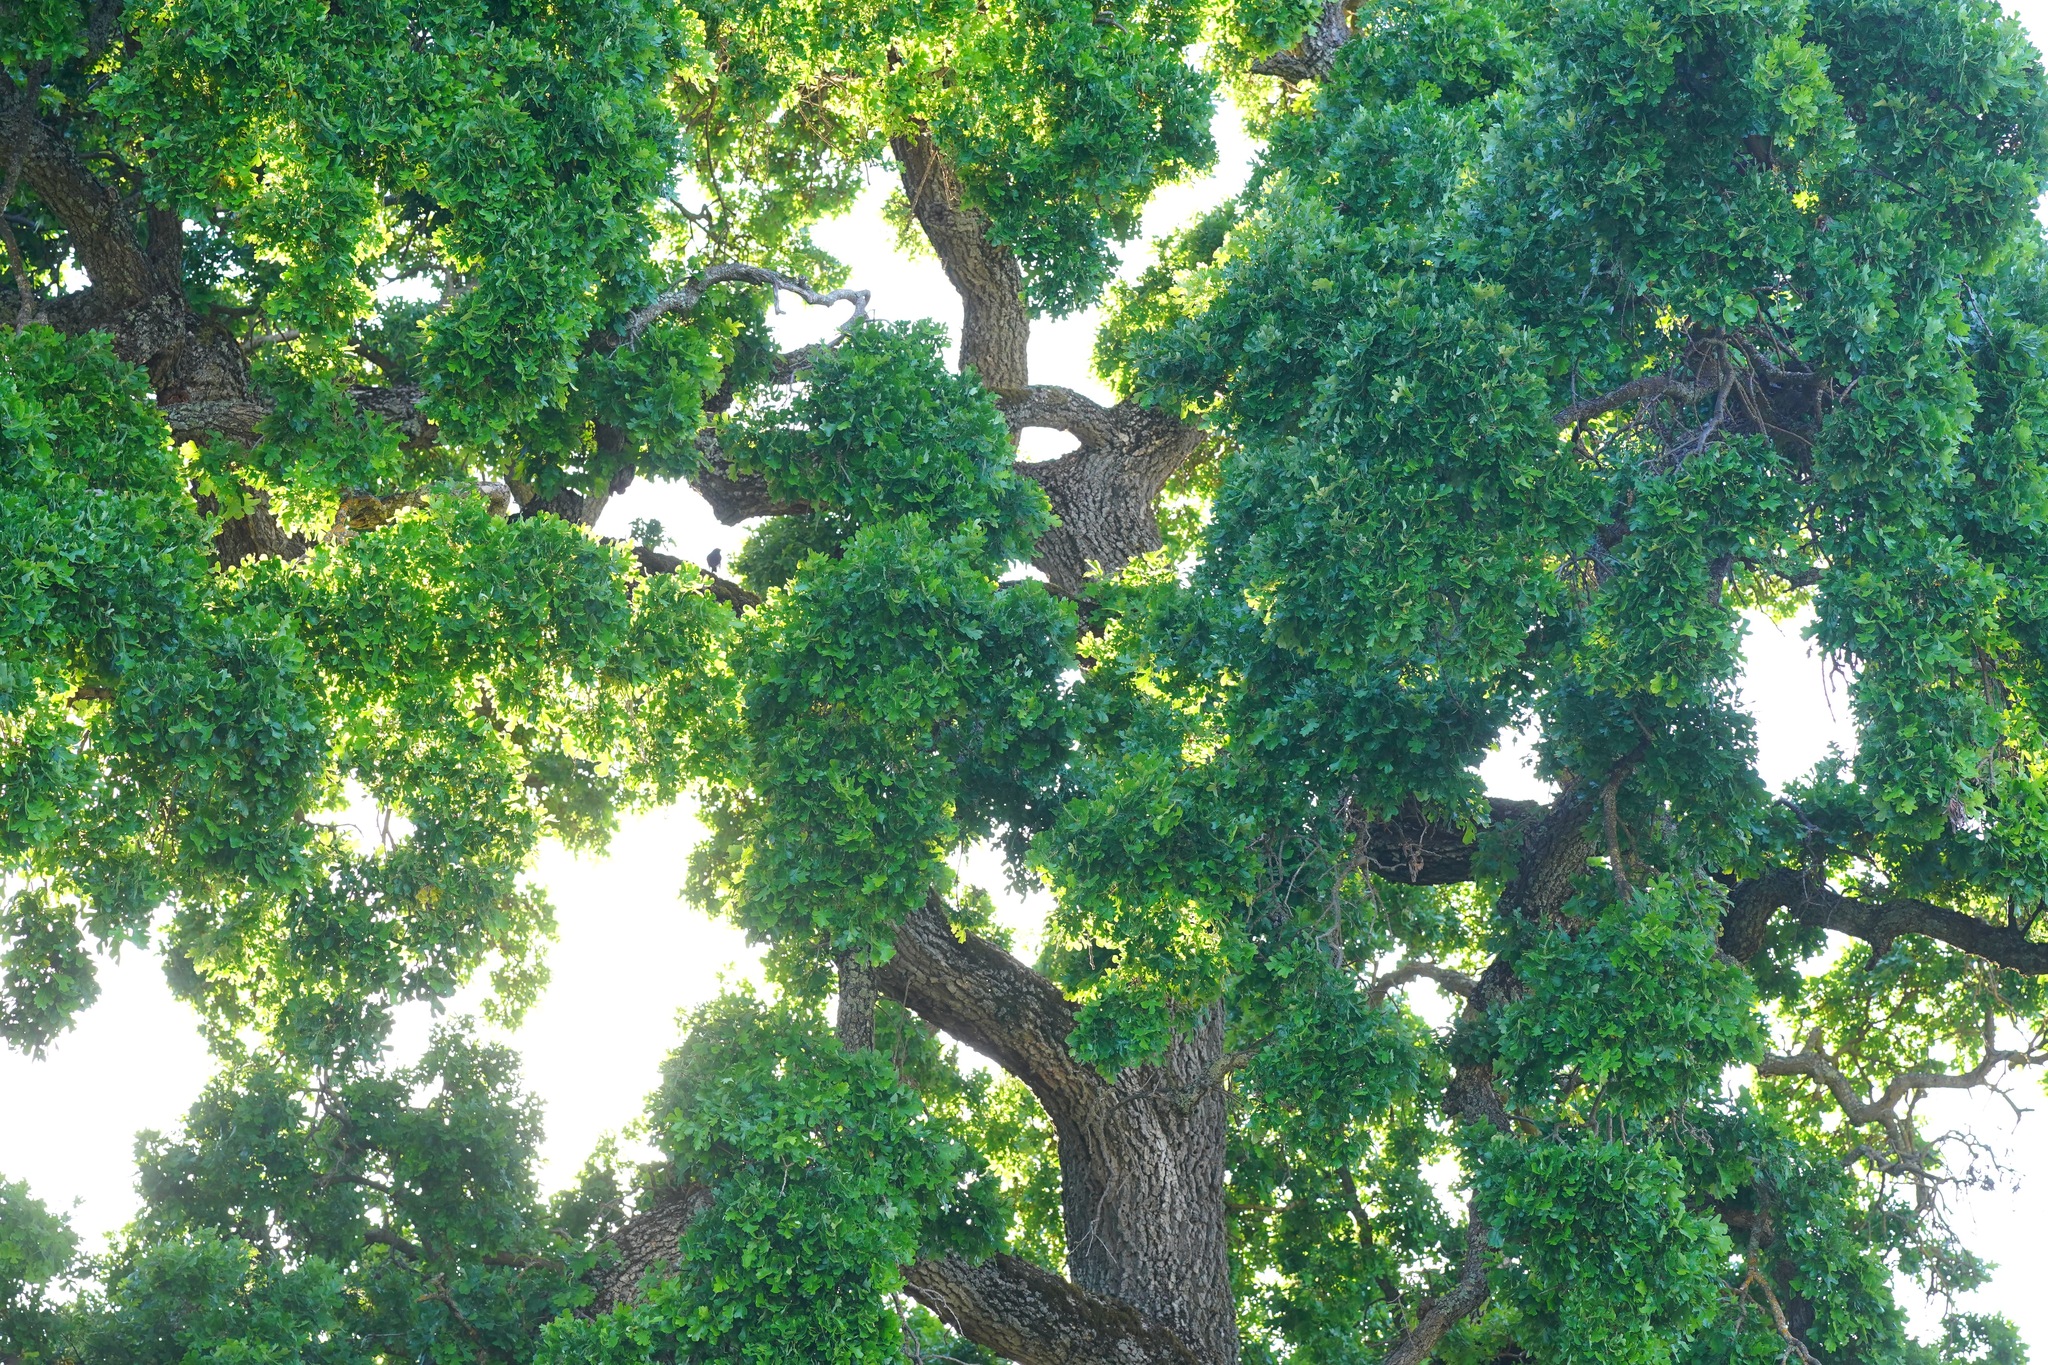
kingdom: Plantae
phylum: Tracheophyta
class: Magnoliopsida
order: Fagales
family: Fagaceae
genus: Quercus
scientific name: Quercus garryana
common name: Garry oak
